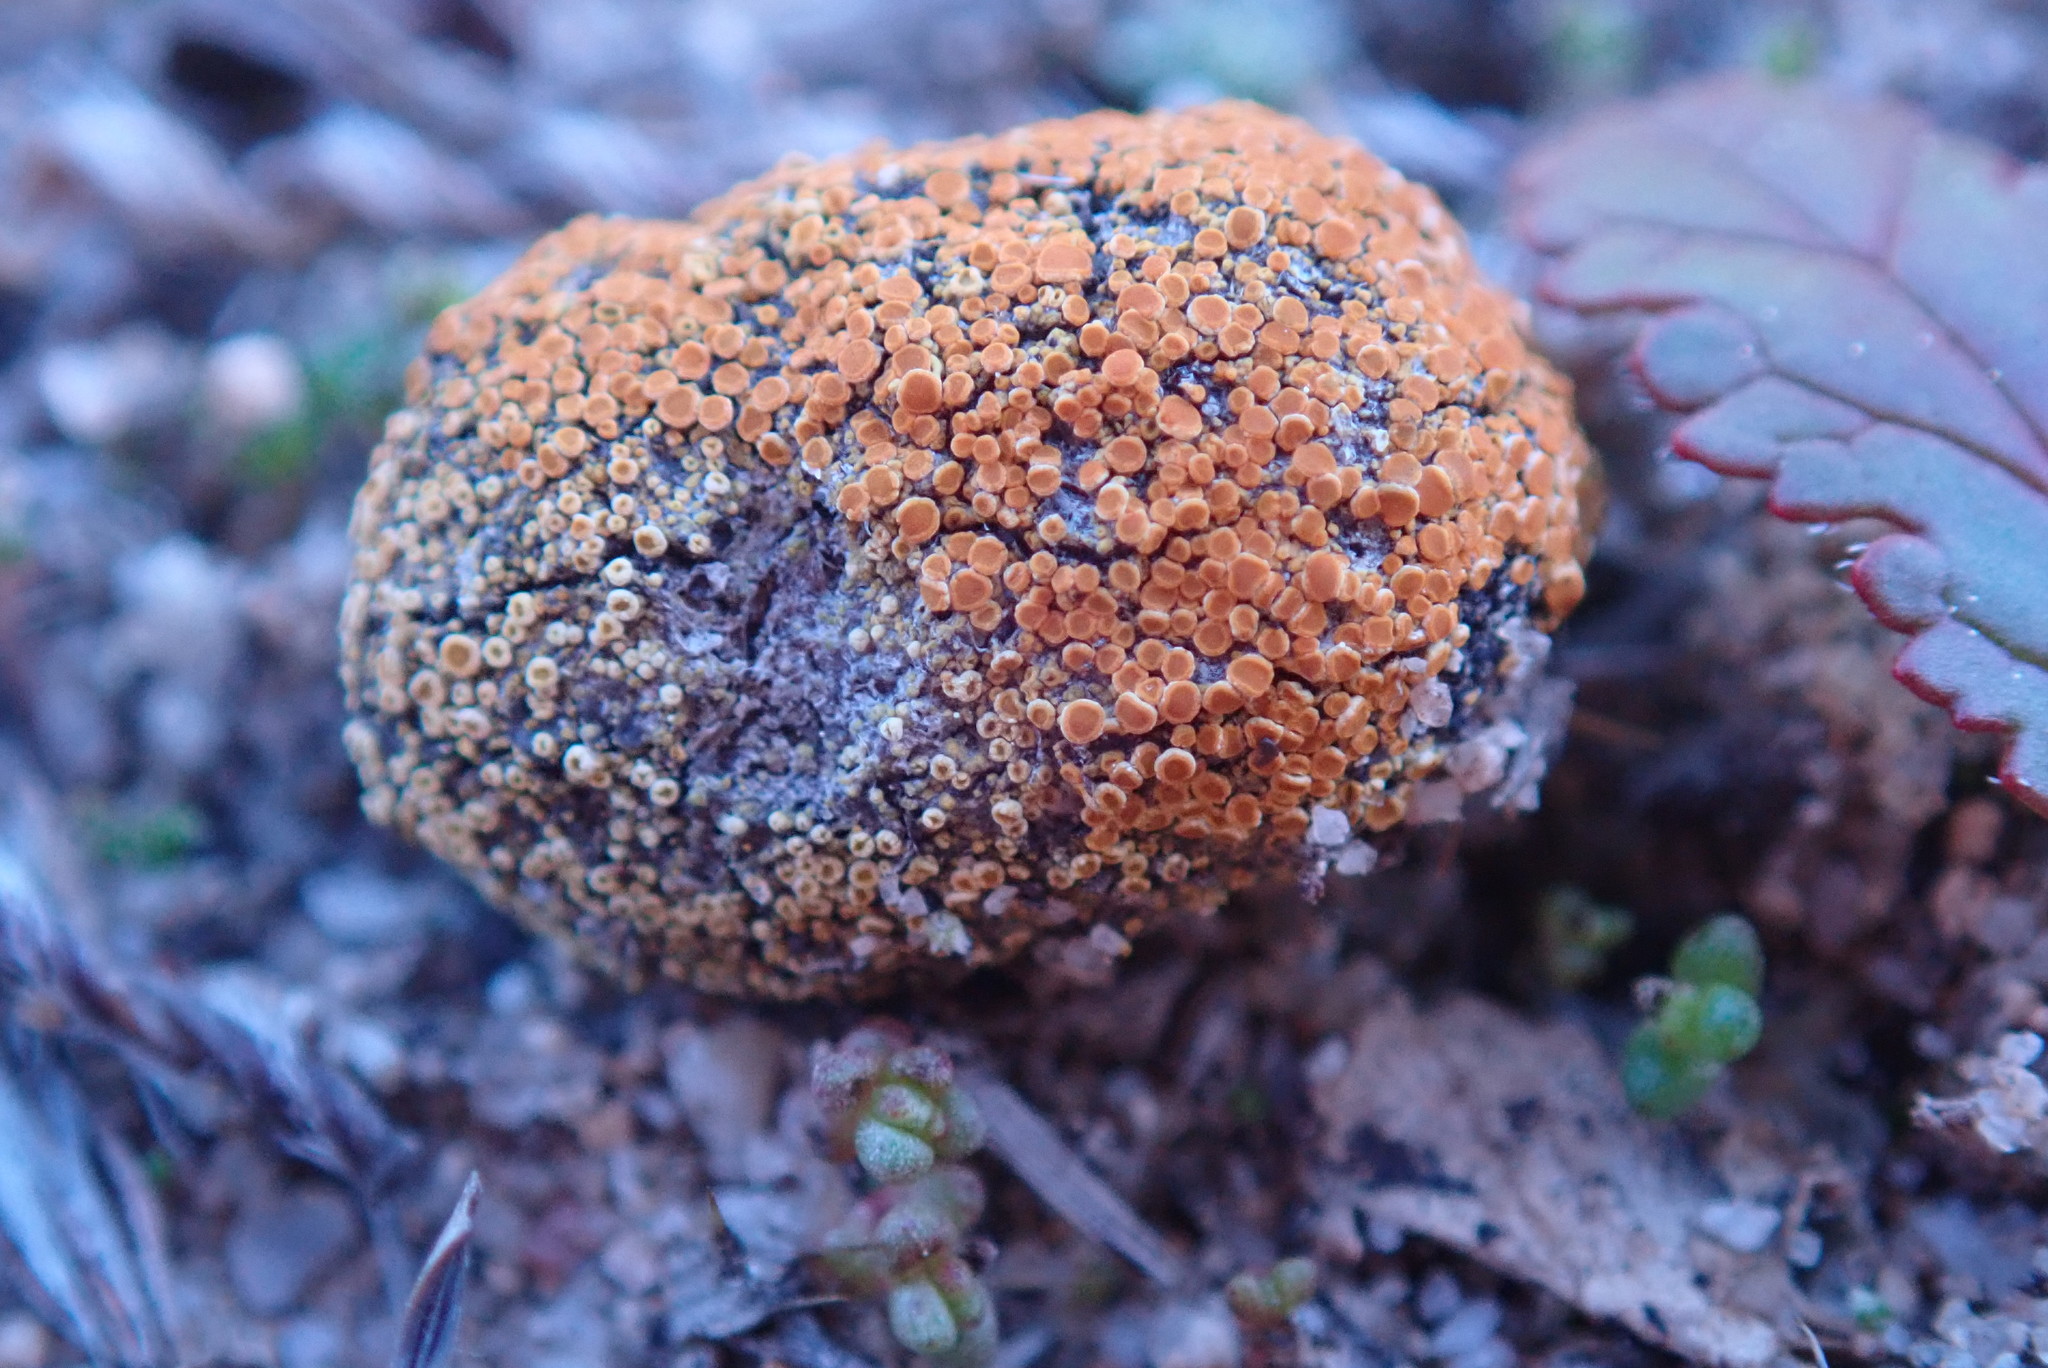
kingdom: Fungi
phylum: Ascomycota
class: Lecanoromycetes
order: Teloschistales
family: Teloschistaceae
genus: Caloplaca
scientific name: Caloplaca subpyracella
